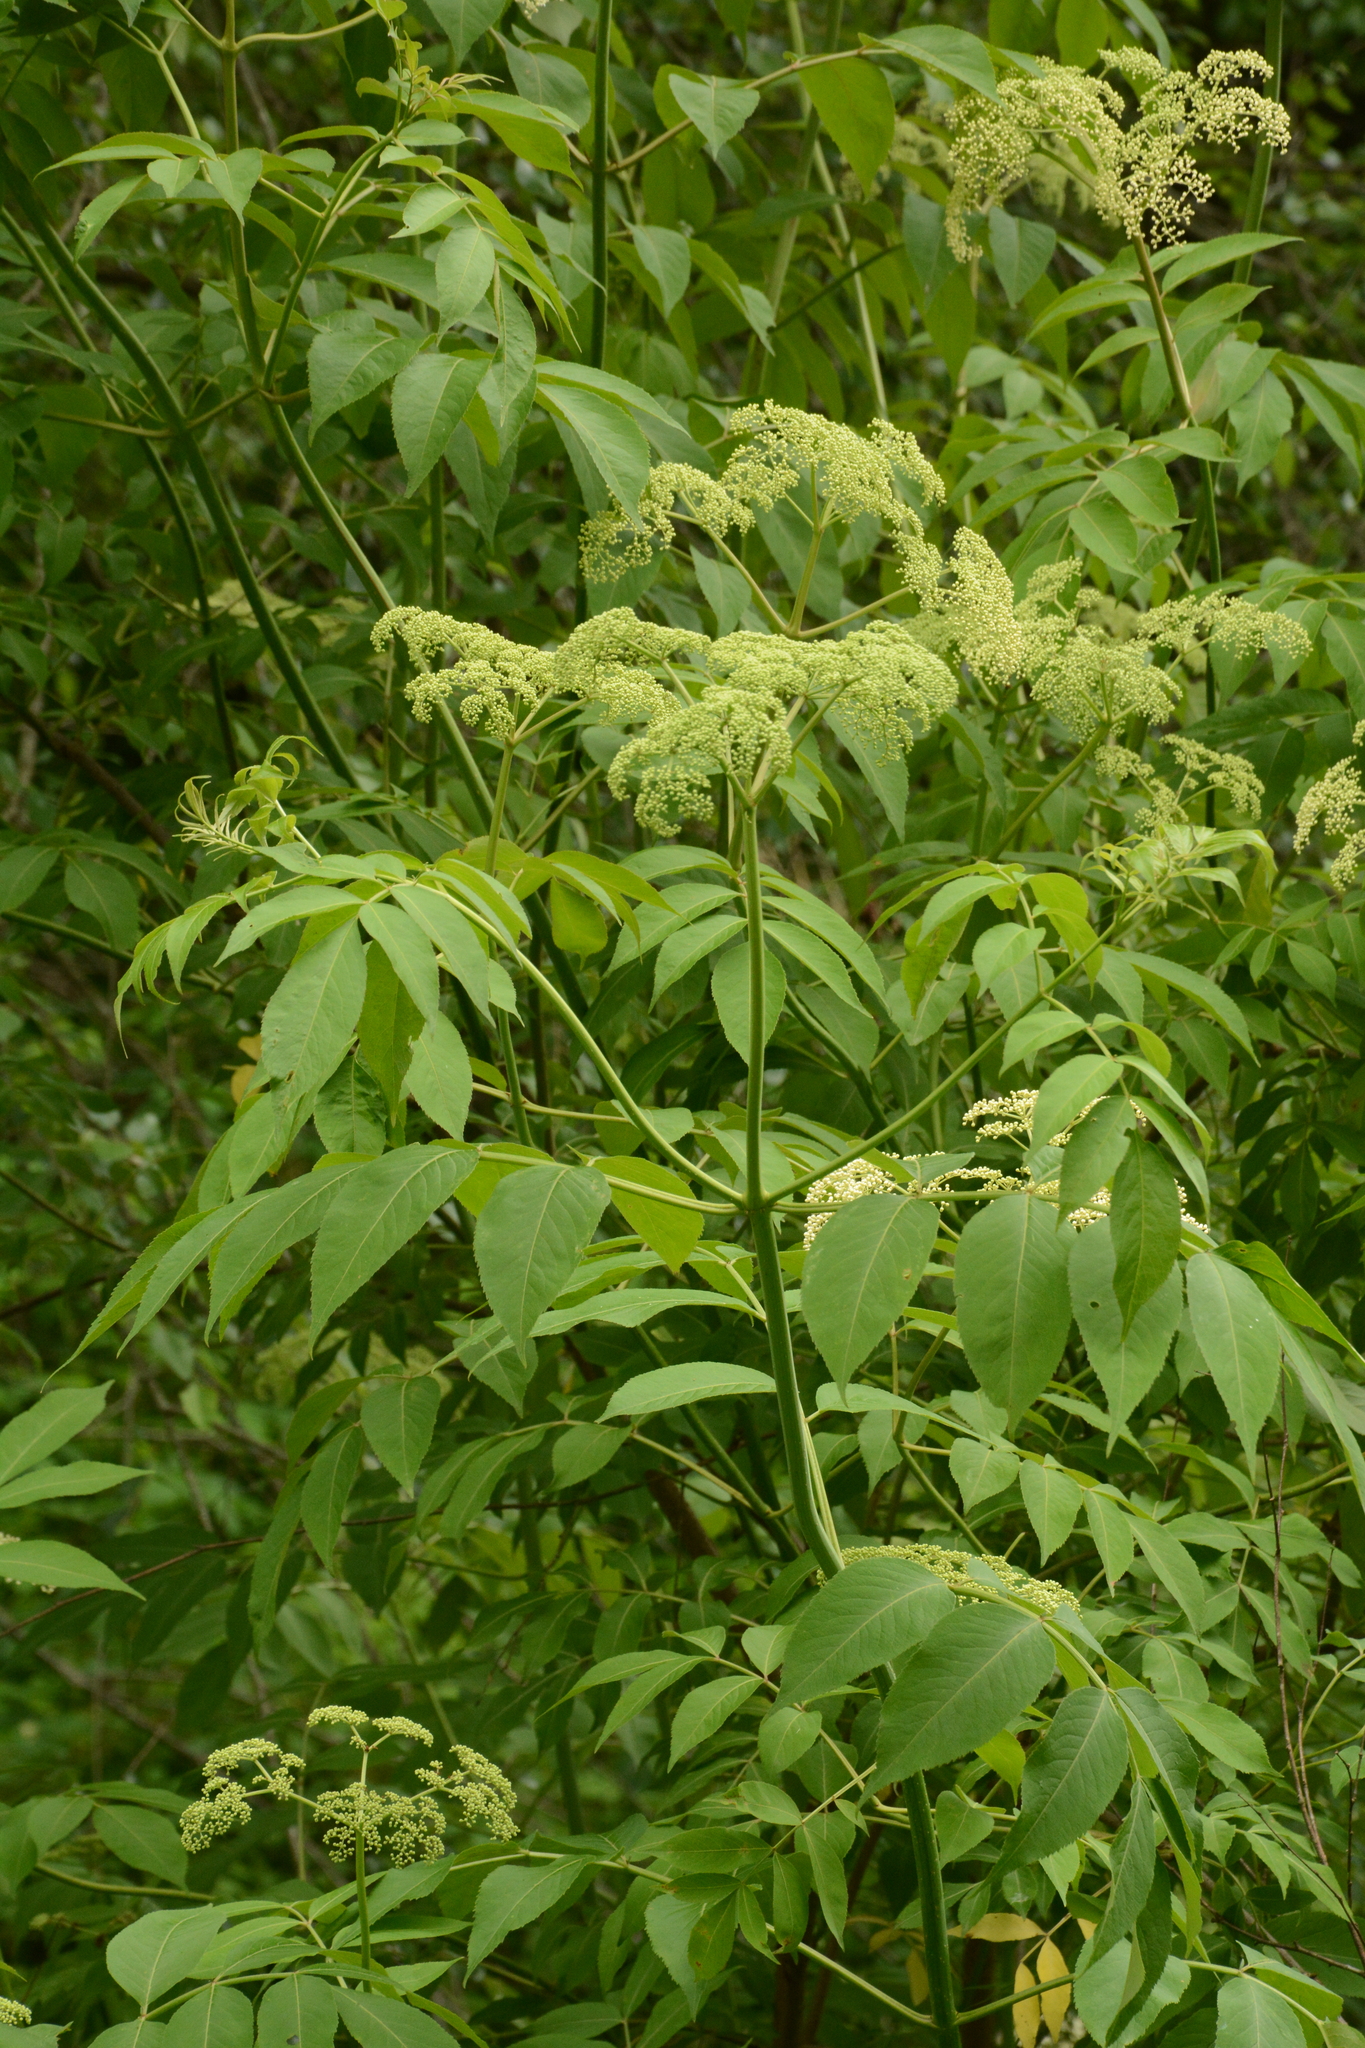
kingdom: Plantae
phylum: Tracheophyta
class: Magnoliopsida
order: Dipsacales
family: Viburnaceae
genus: Sambucus
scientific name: Sambucus canadensis
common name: American elder
